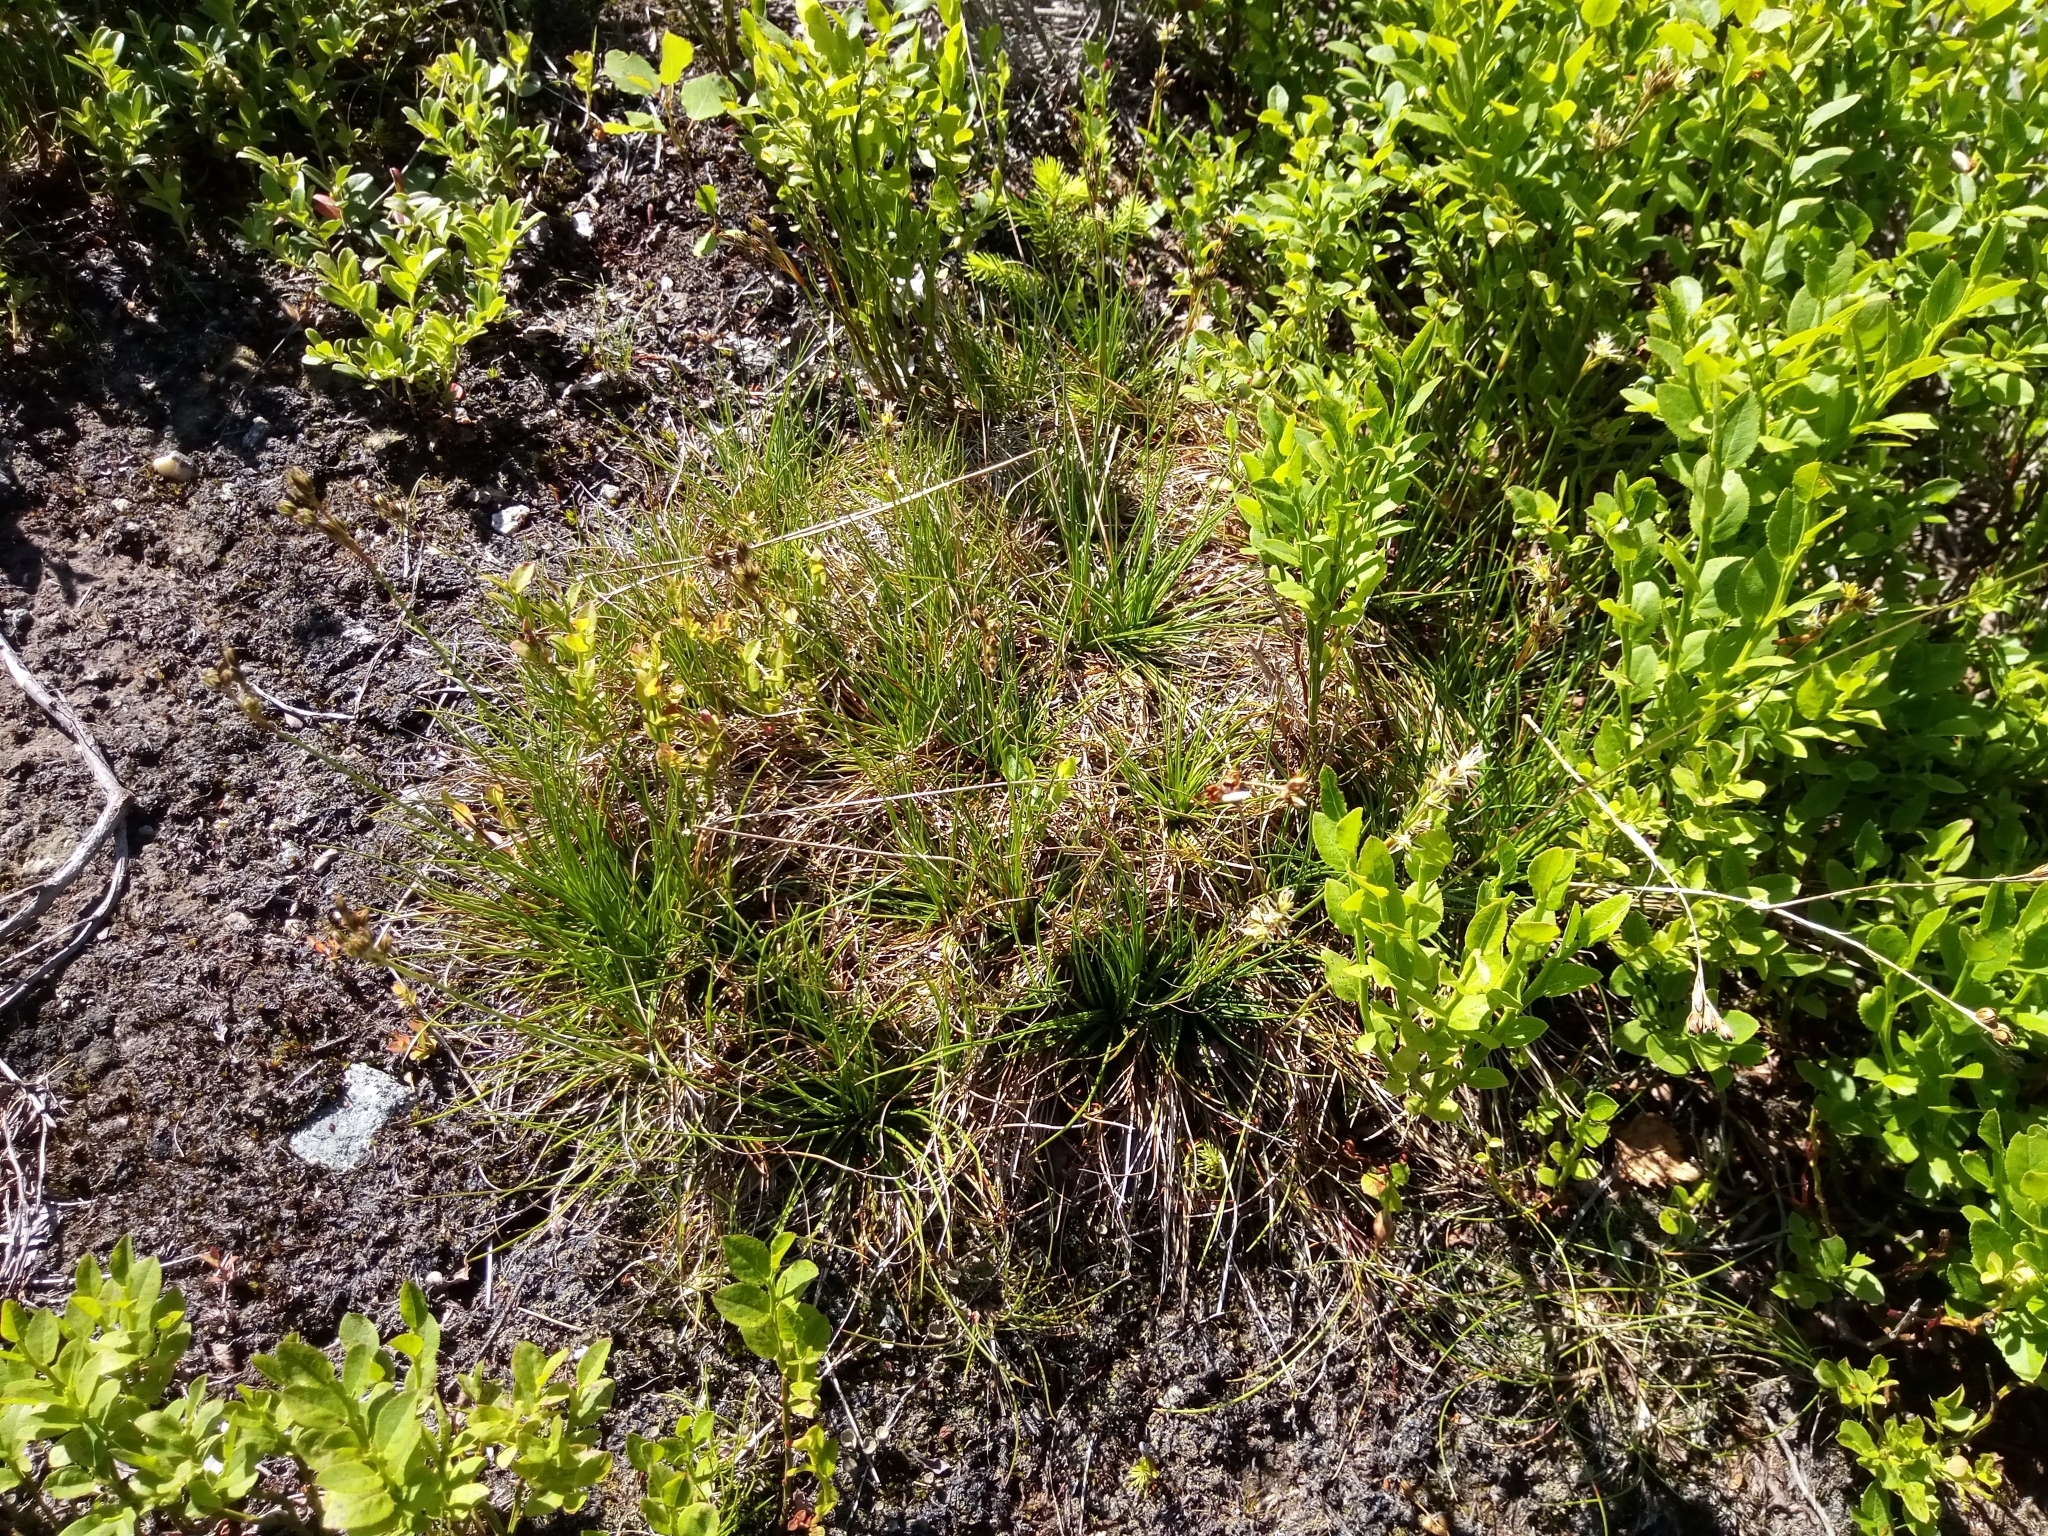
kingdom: Plantae
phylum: Tracheophyta
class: Liliopsida
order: Poales
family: Juncaceae
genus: Juncus
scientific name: Juncus squarrosus
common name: Heath rush
